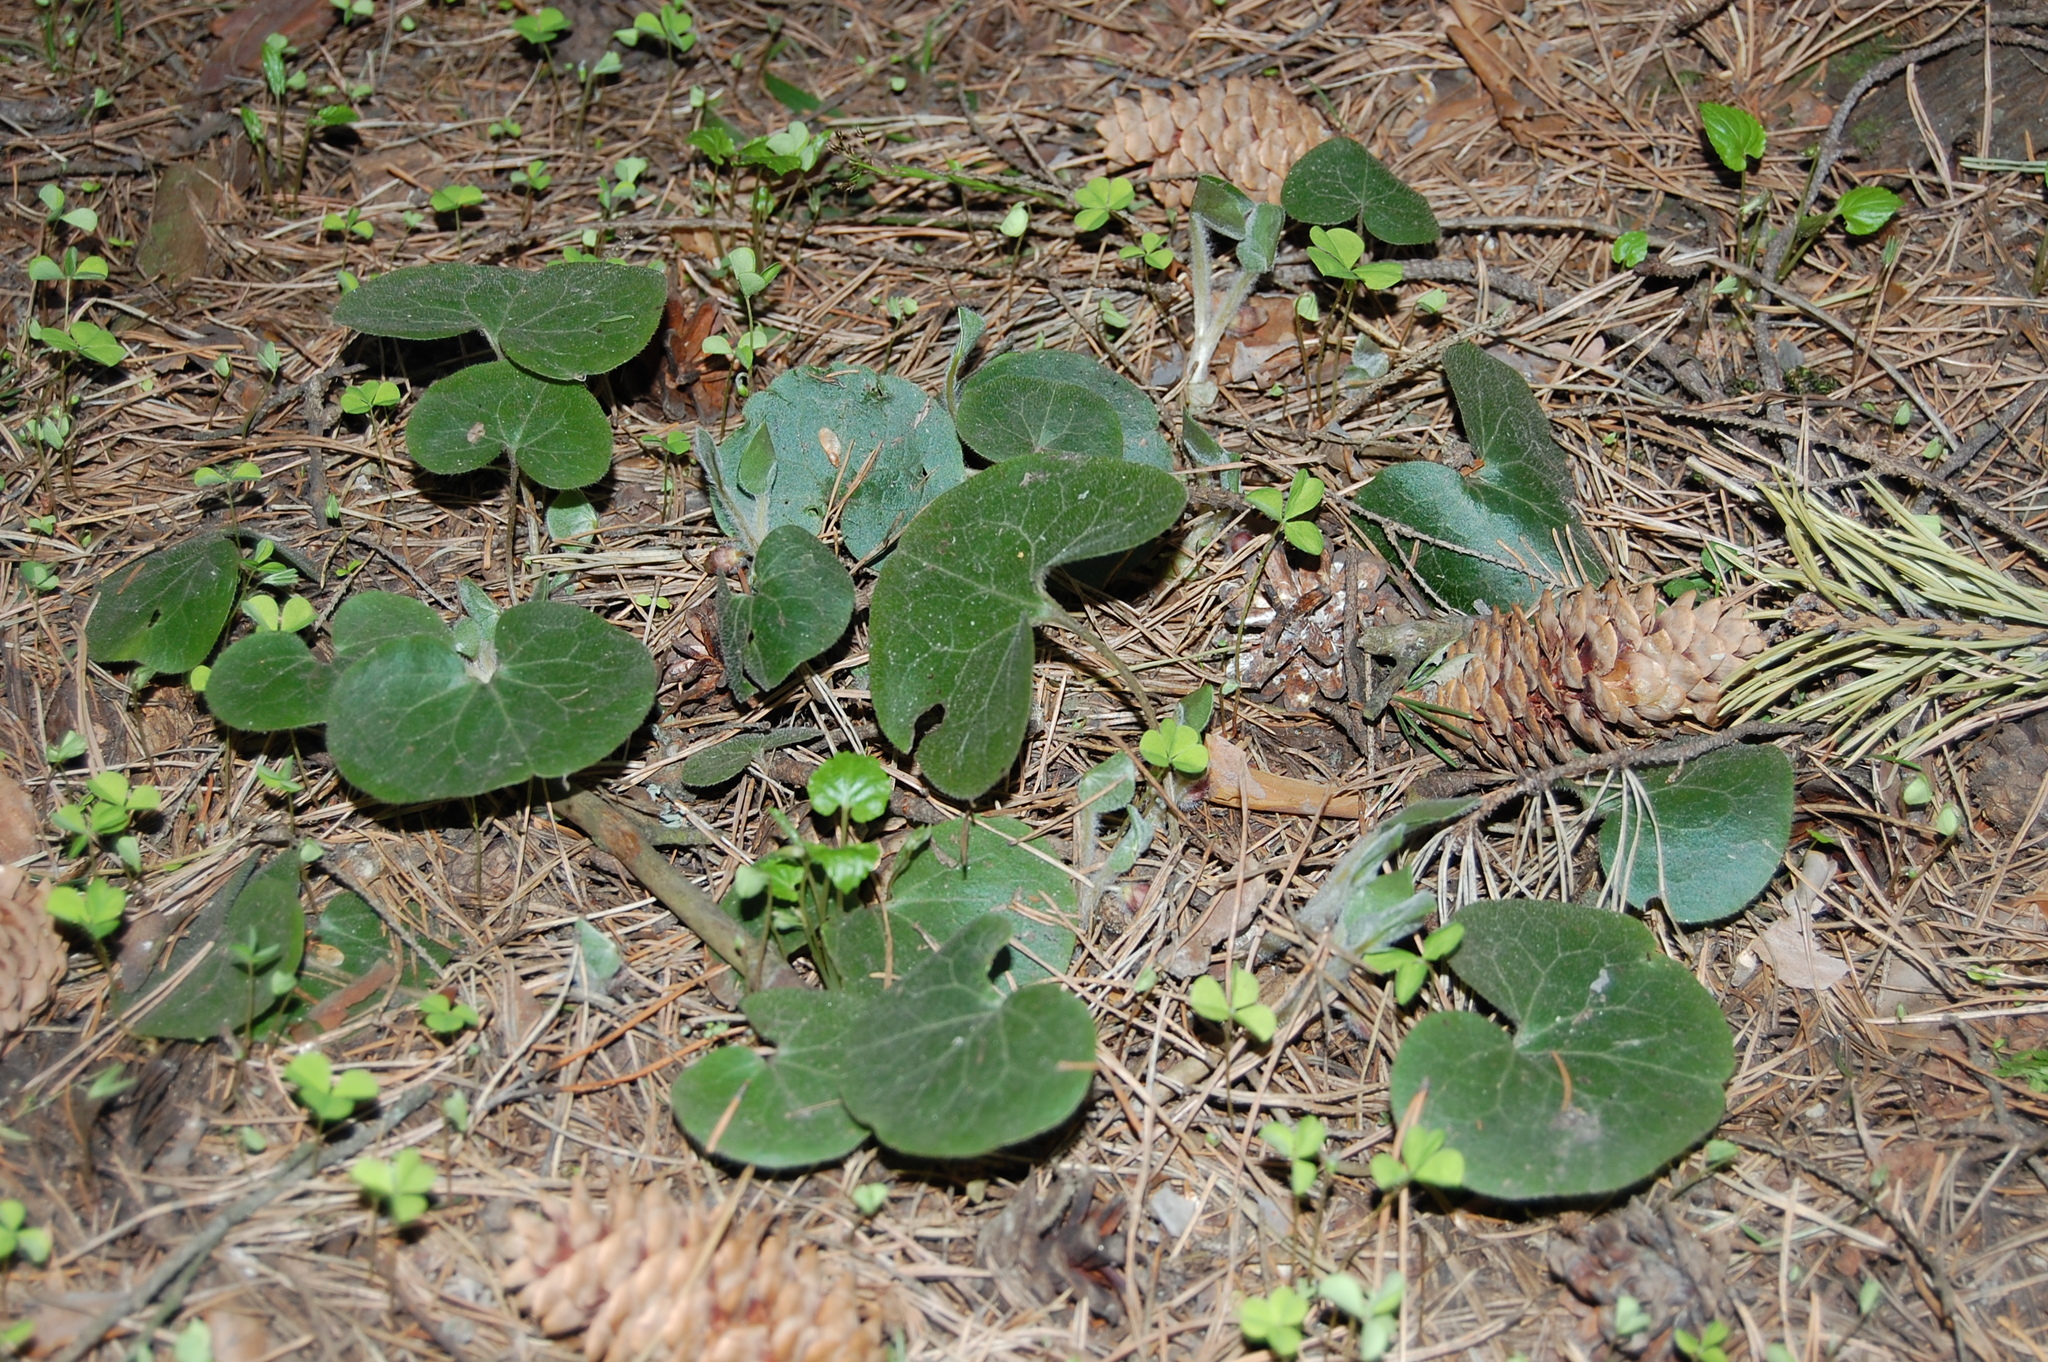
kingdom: Plantae
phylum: Tracheophyta
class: Magnoliopsida
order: Piperales
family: Aristolochiaceae
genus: Asarum
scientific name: Asarum europaeum
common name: Asarabacca
